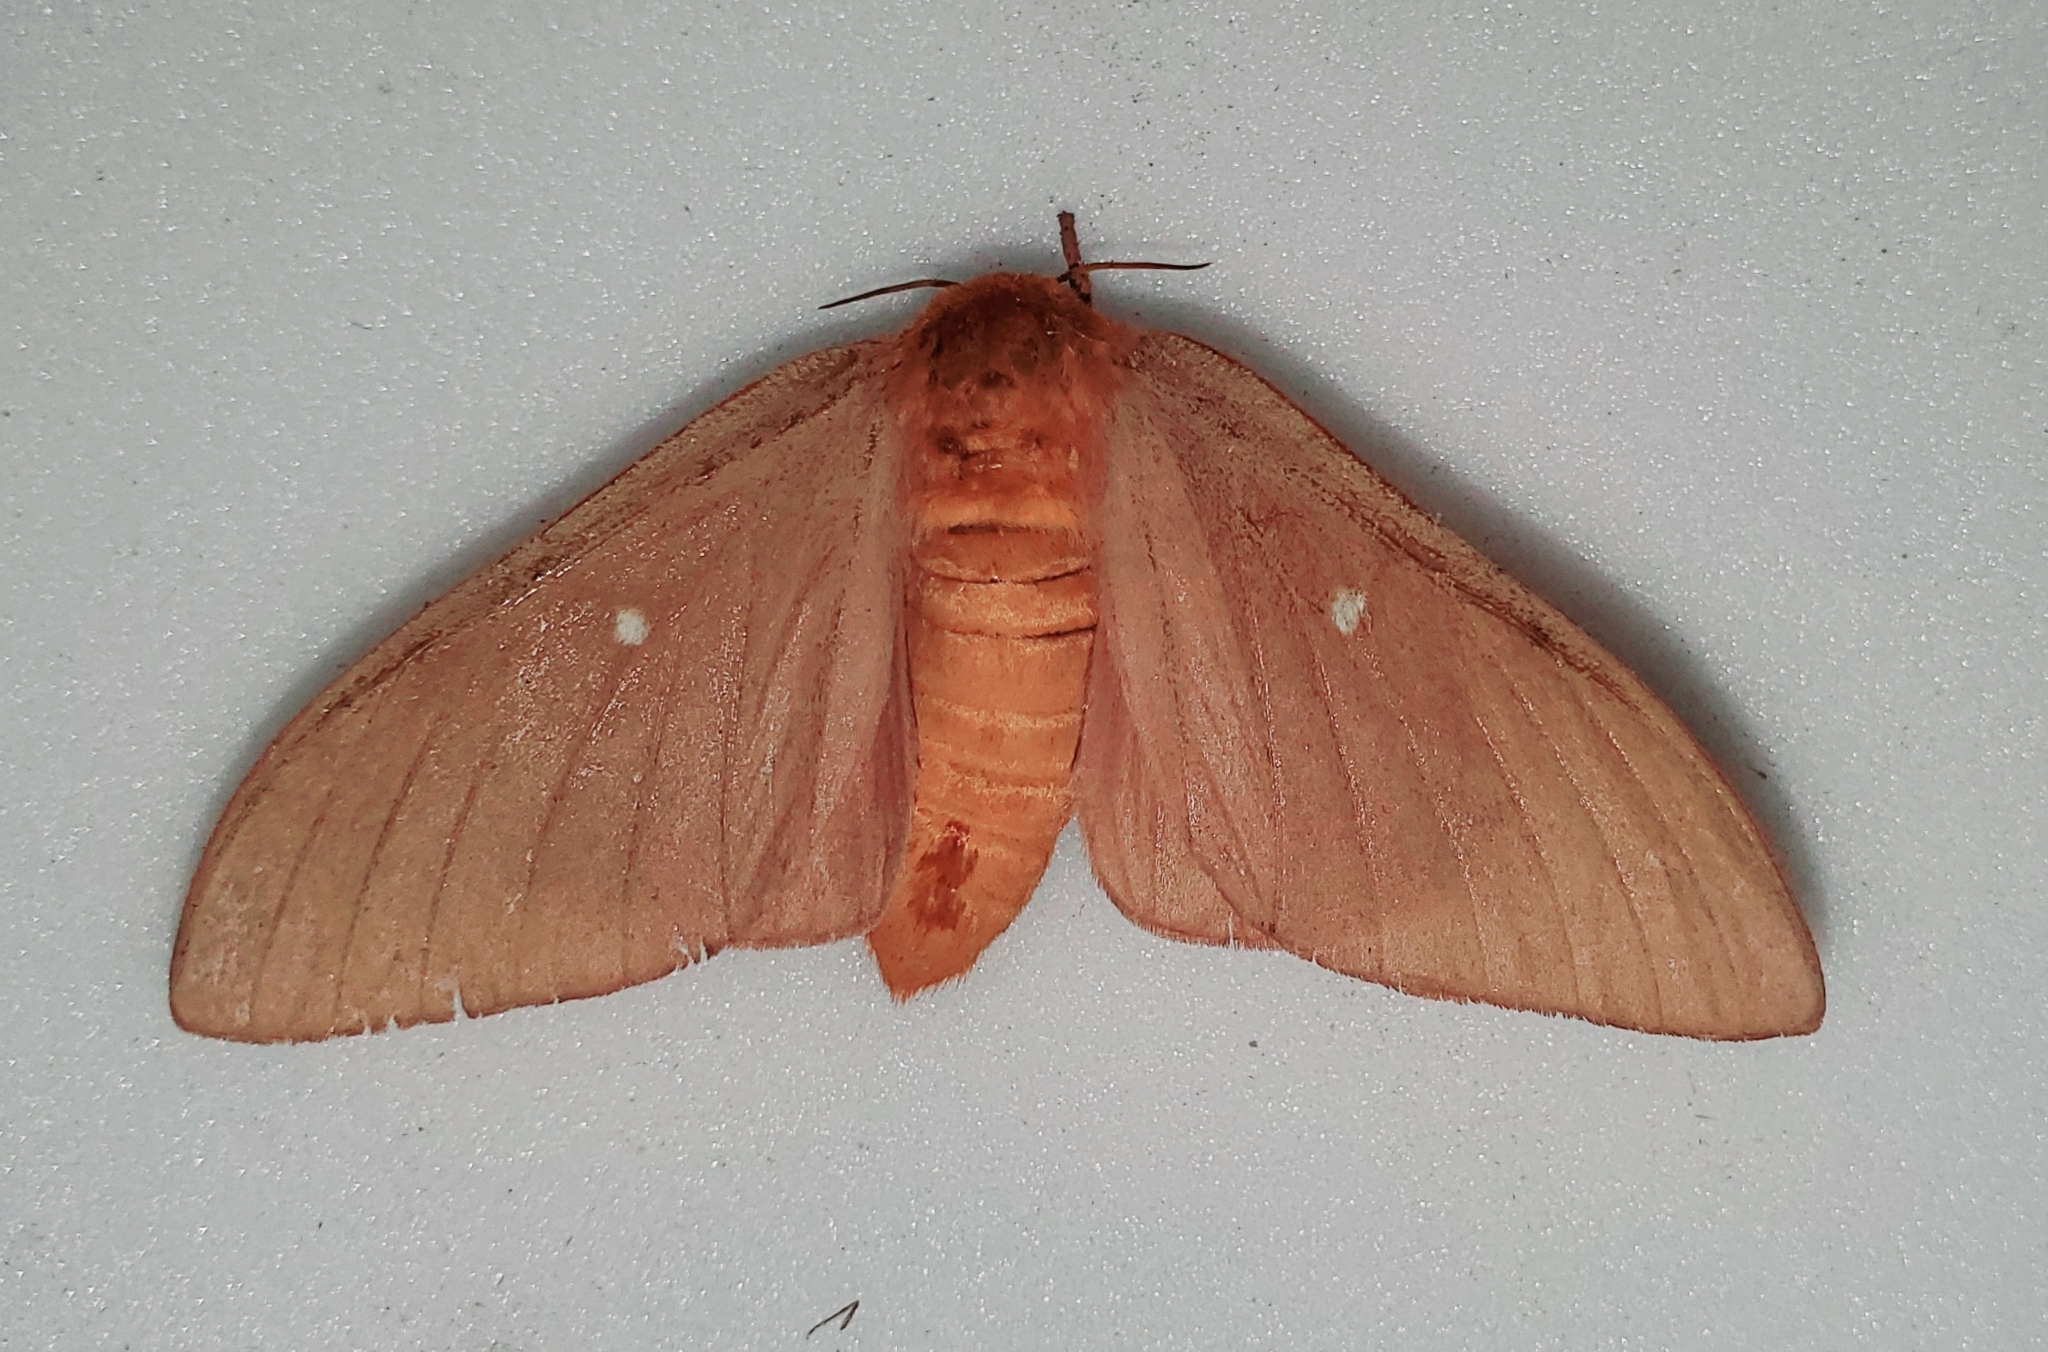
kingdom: Animalia
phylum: Arthropoda
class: Insecta
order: Lepidoptera
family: Saturniidae
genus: Anisota
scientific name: Anisota oslari
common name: Oslar's oakworm moth
